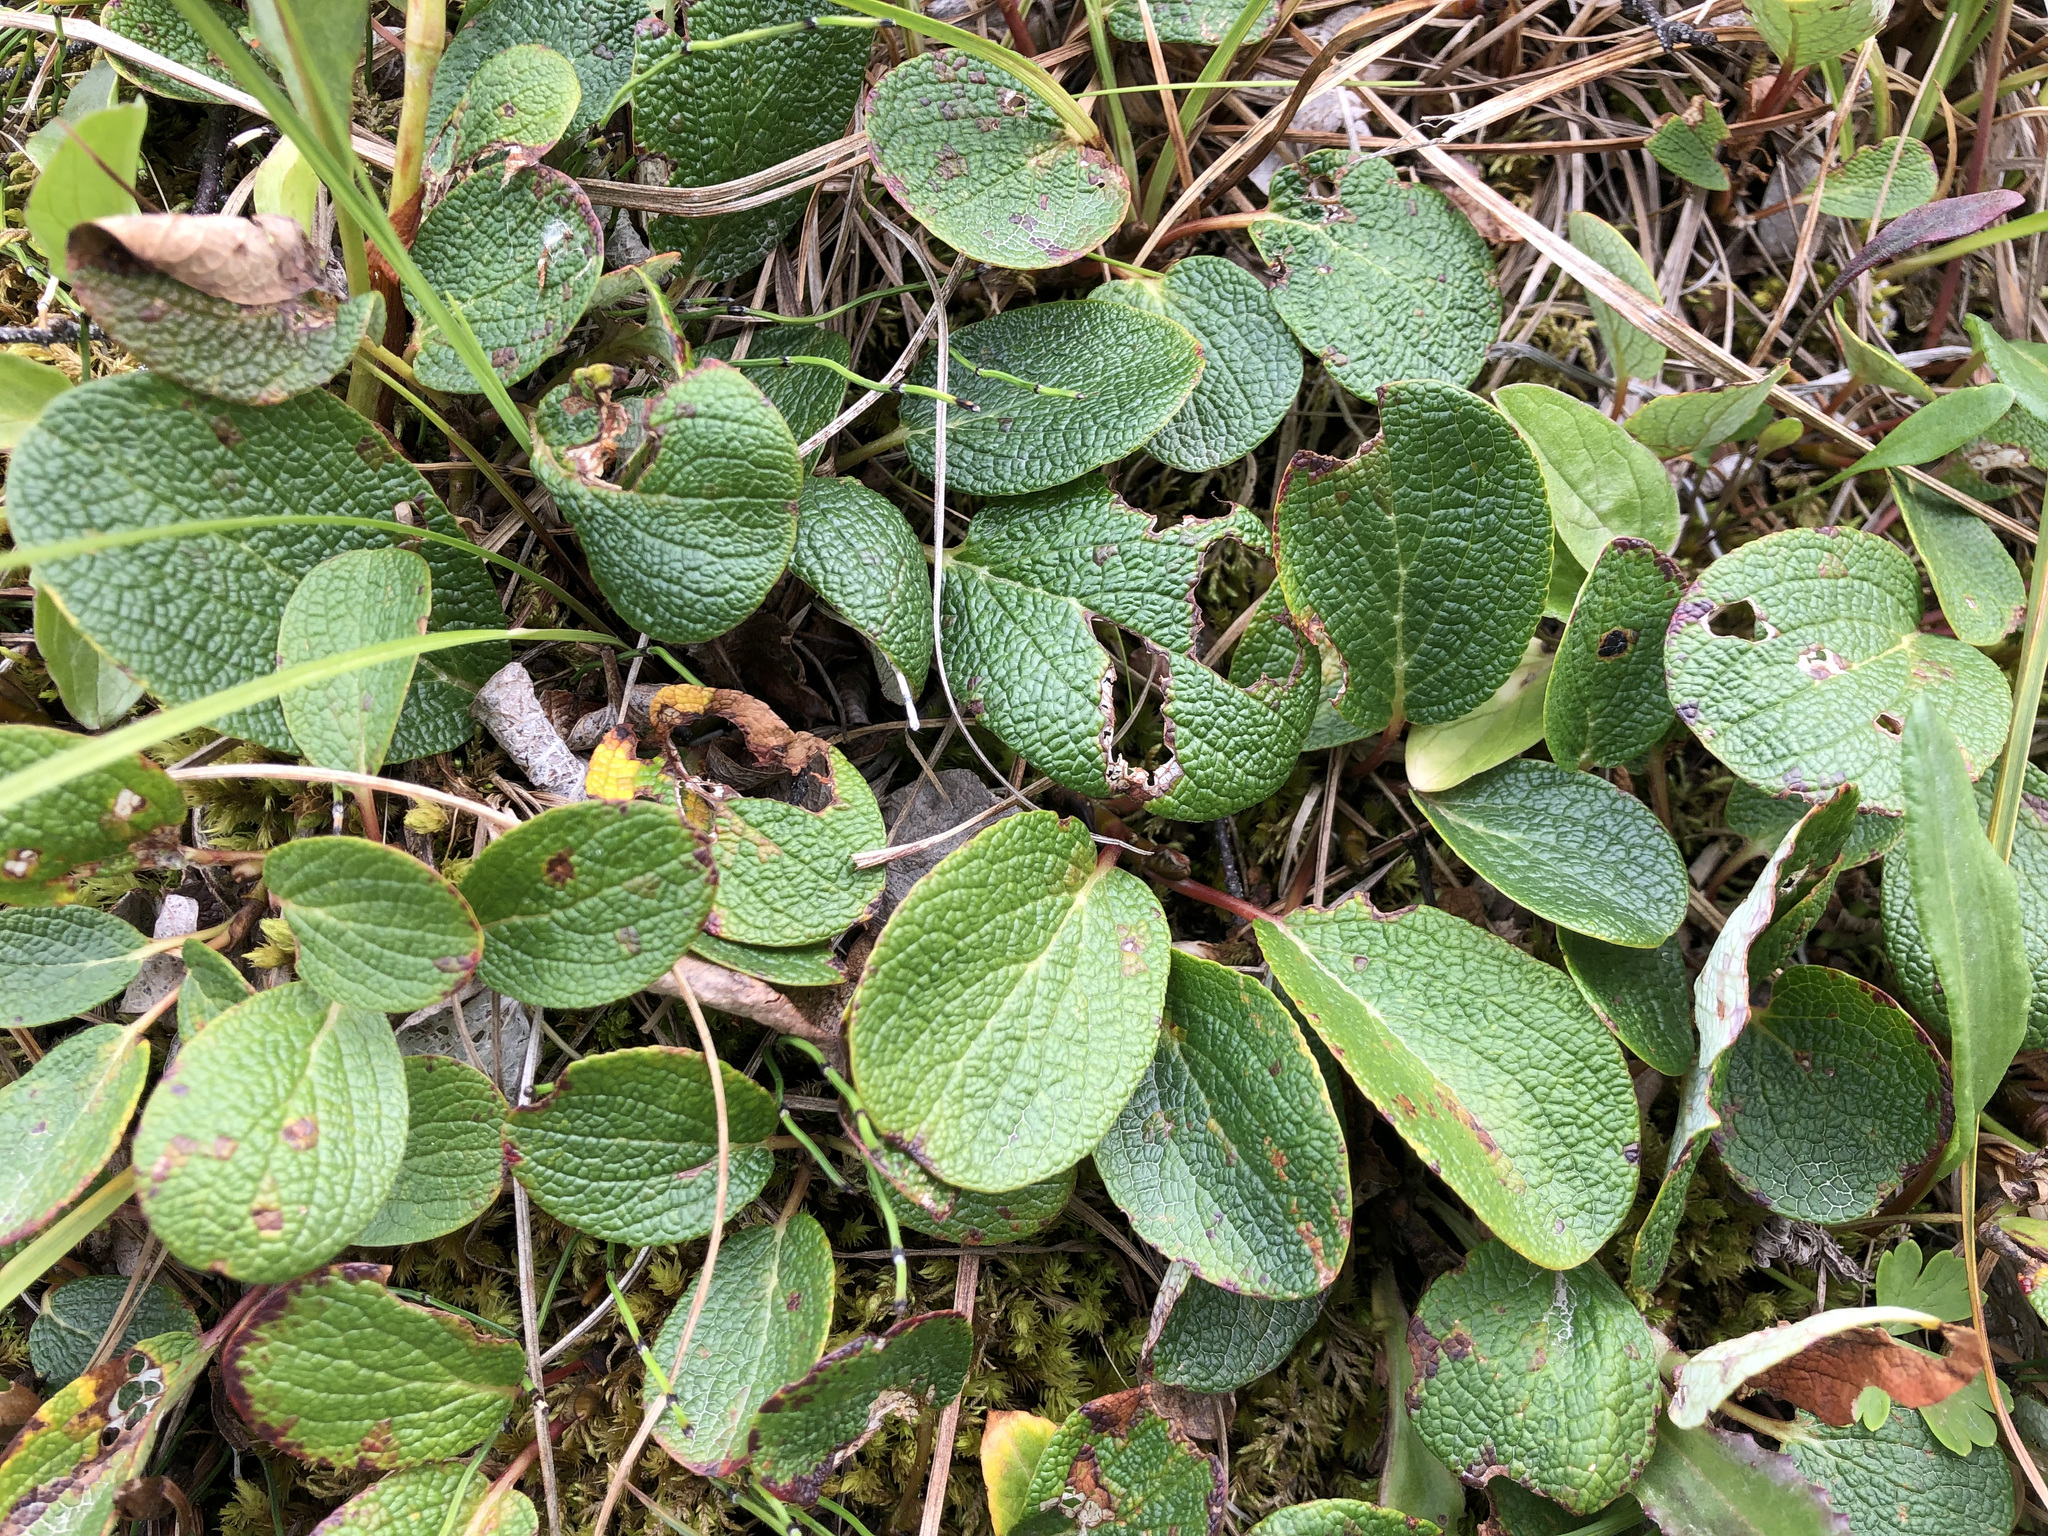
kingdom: Plantae
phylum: Tracheophyta
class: Magnoliopsida
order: Malpighiales
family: Salicaceae
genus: Salix
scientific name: Salix reticulata
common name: Net-leaved willow
